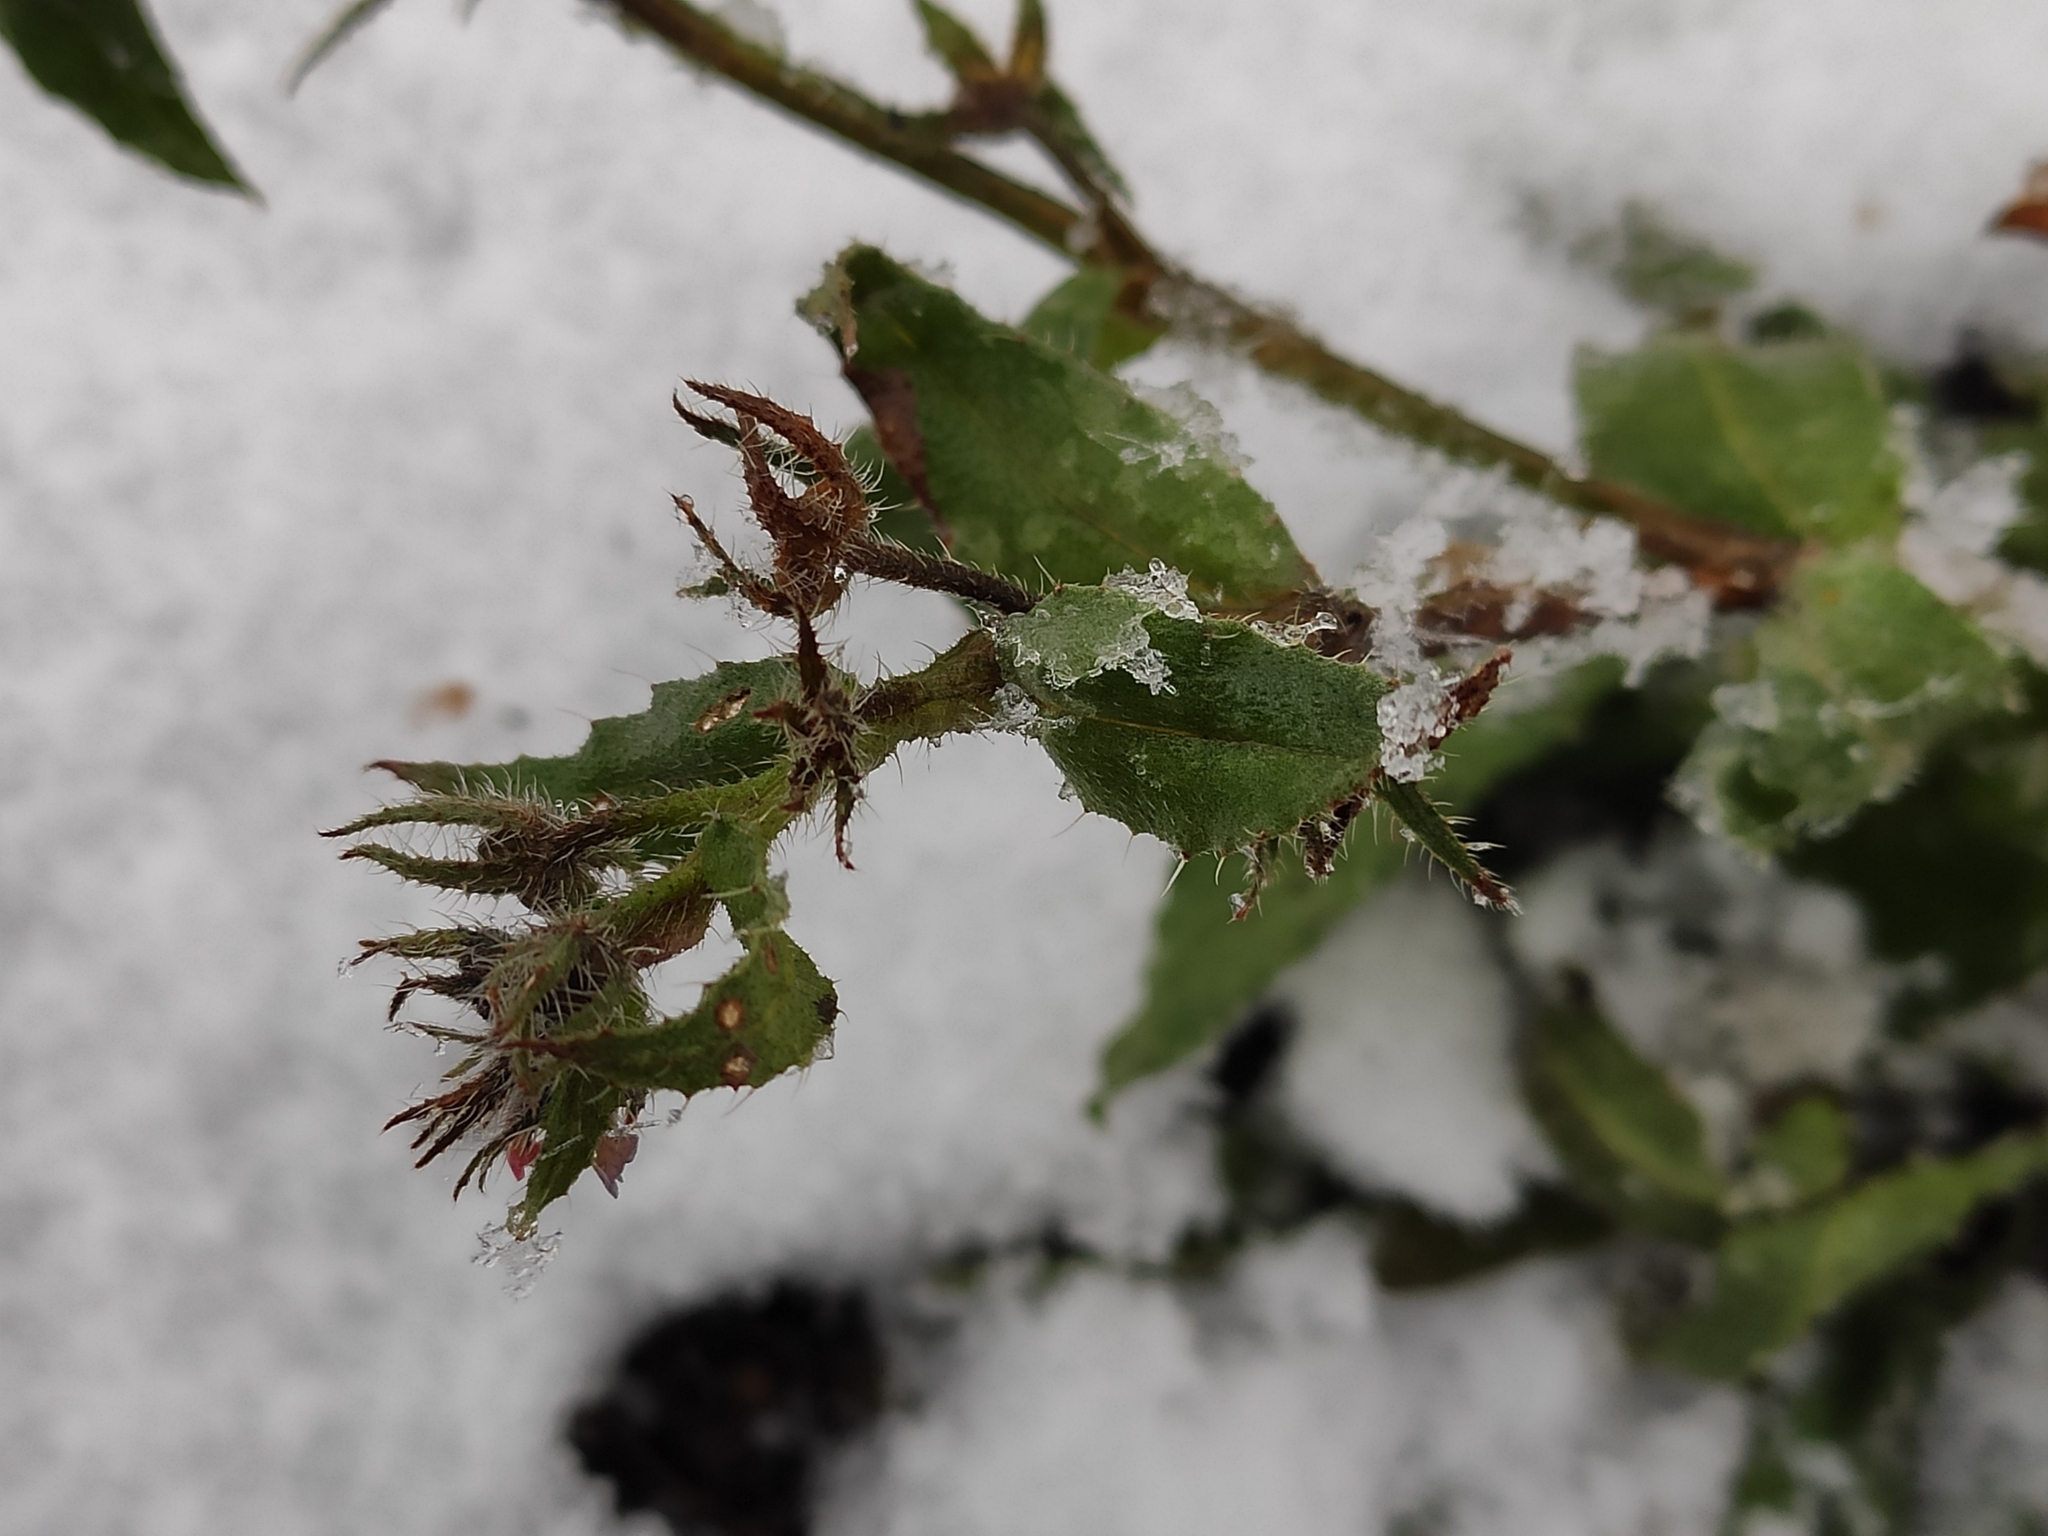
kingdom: Plantae
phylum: Tracheophyta
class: Magnoliopsida
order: Boraginales
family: Boraginaceae
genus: Buglossoides
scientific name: Buglossoides arvensis
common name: Corn gromwell
